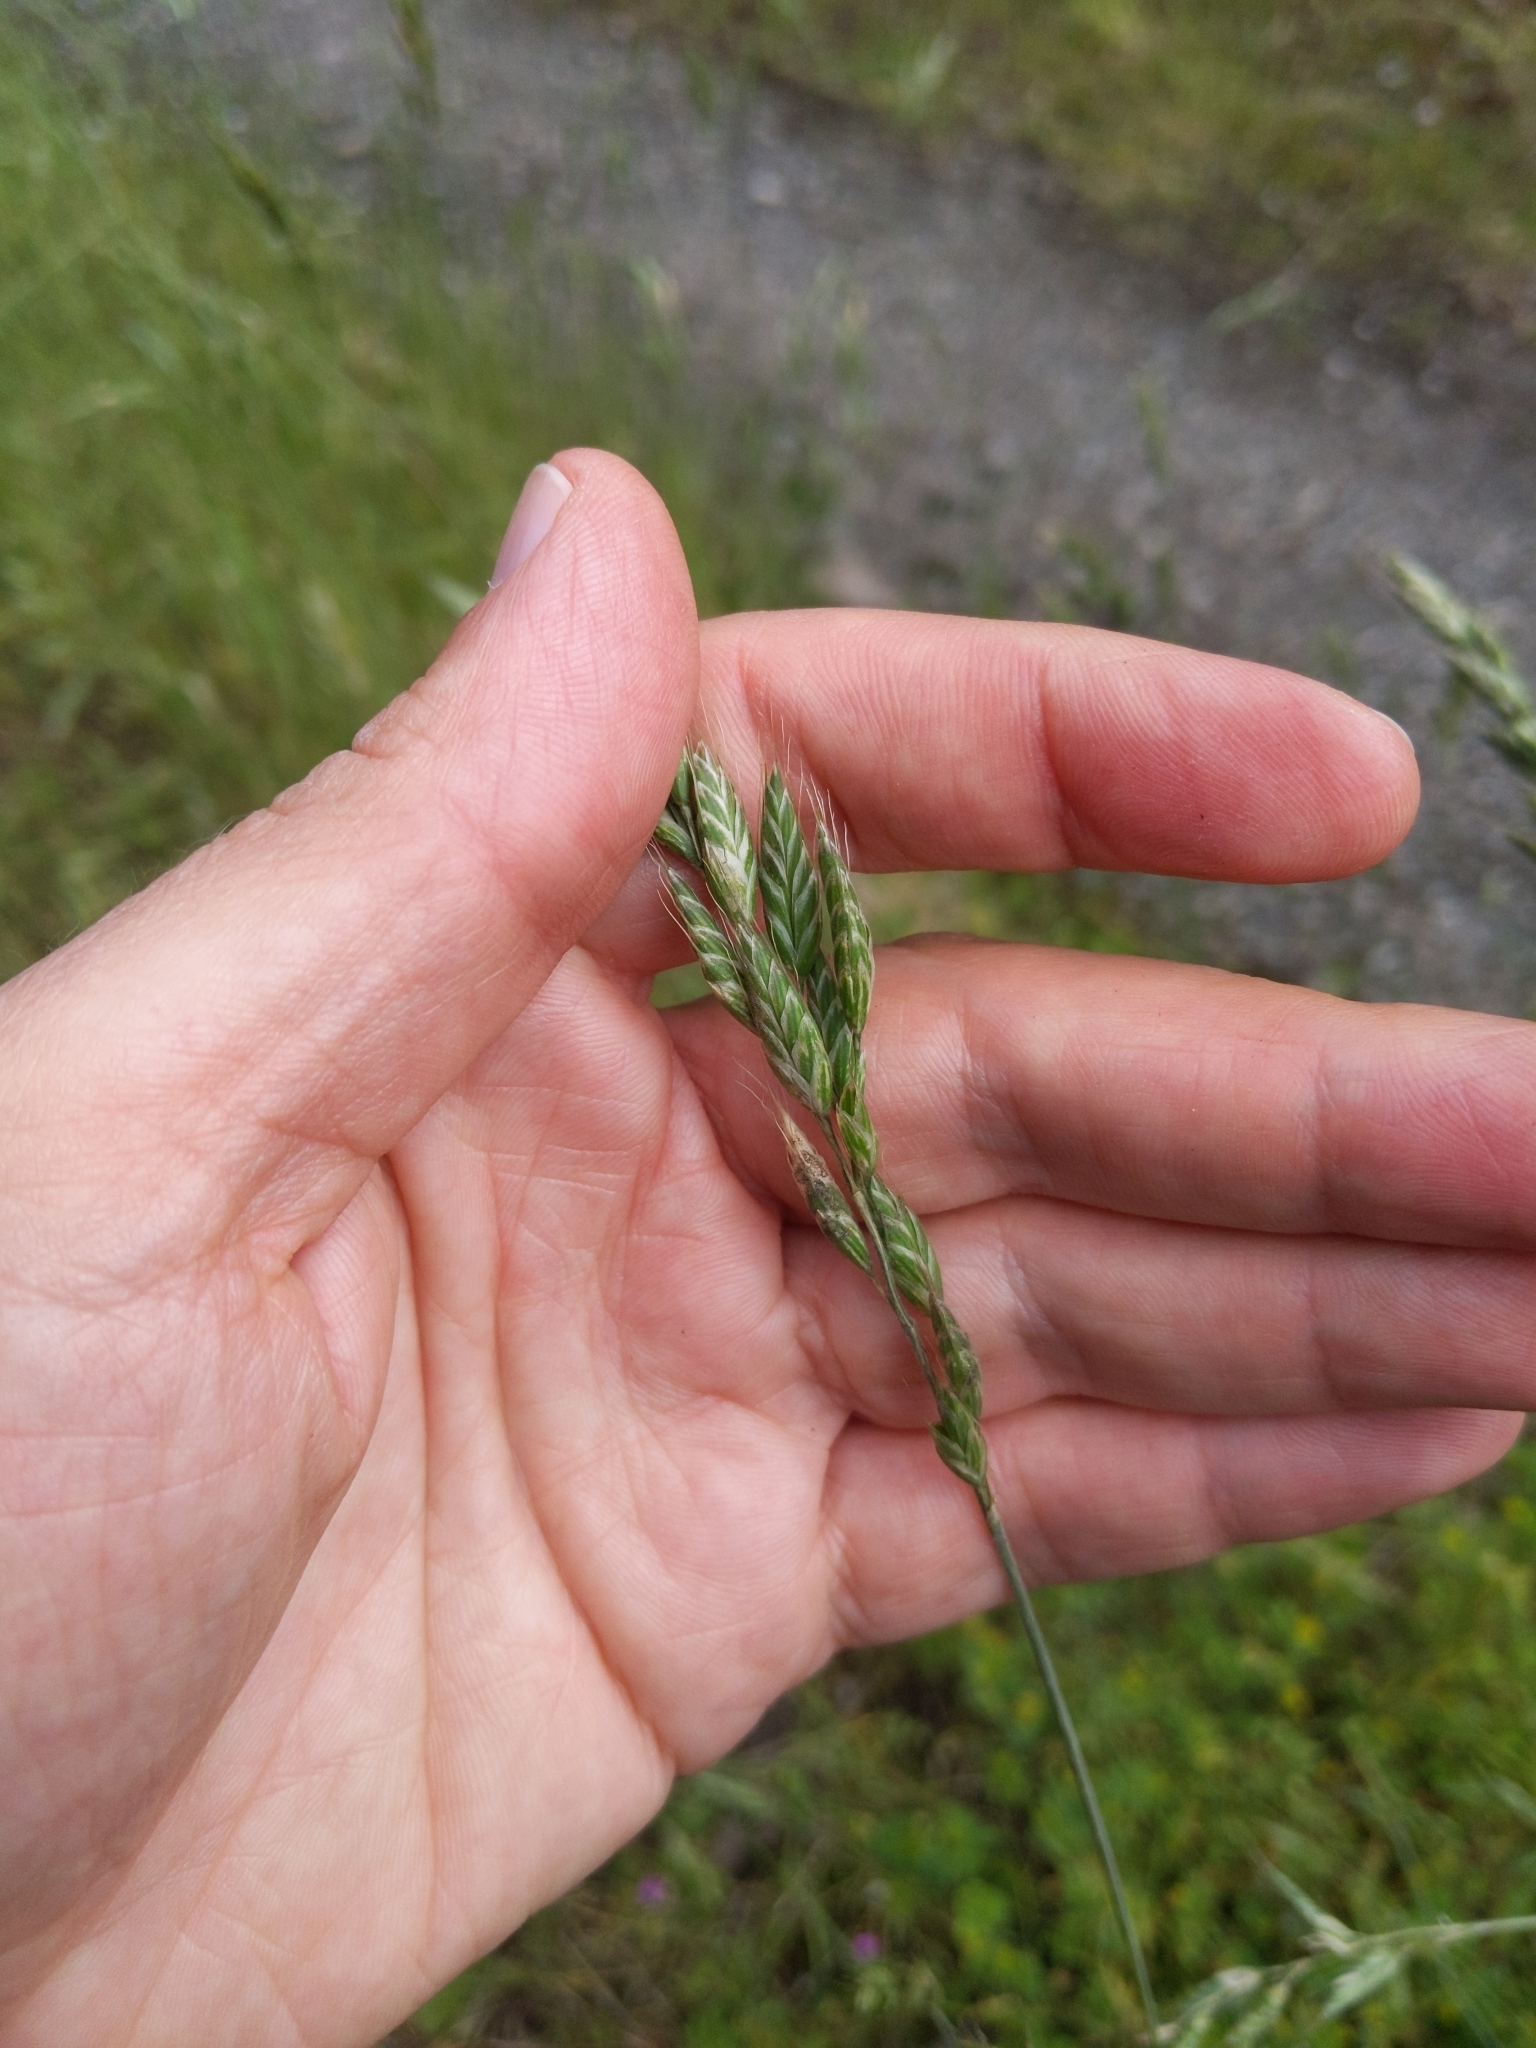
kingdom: Plantae
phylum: Tracheophyta
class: Liliopsida
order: Poales
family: Poaceae
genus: Bromus
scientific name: Bromus hordeaceus
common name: Soft brome
